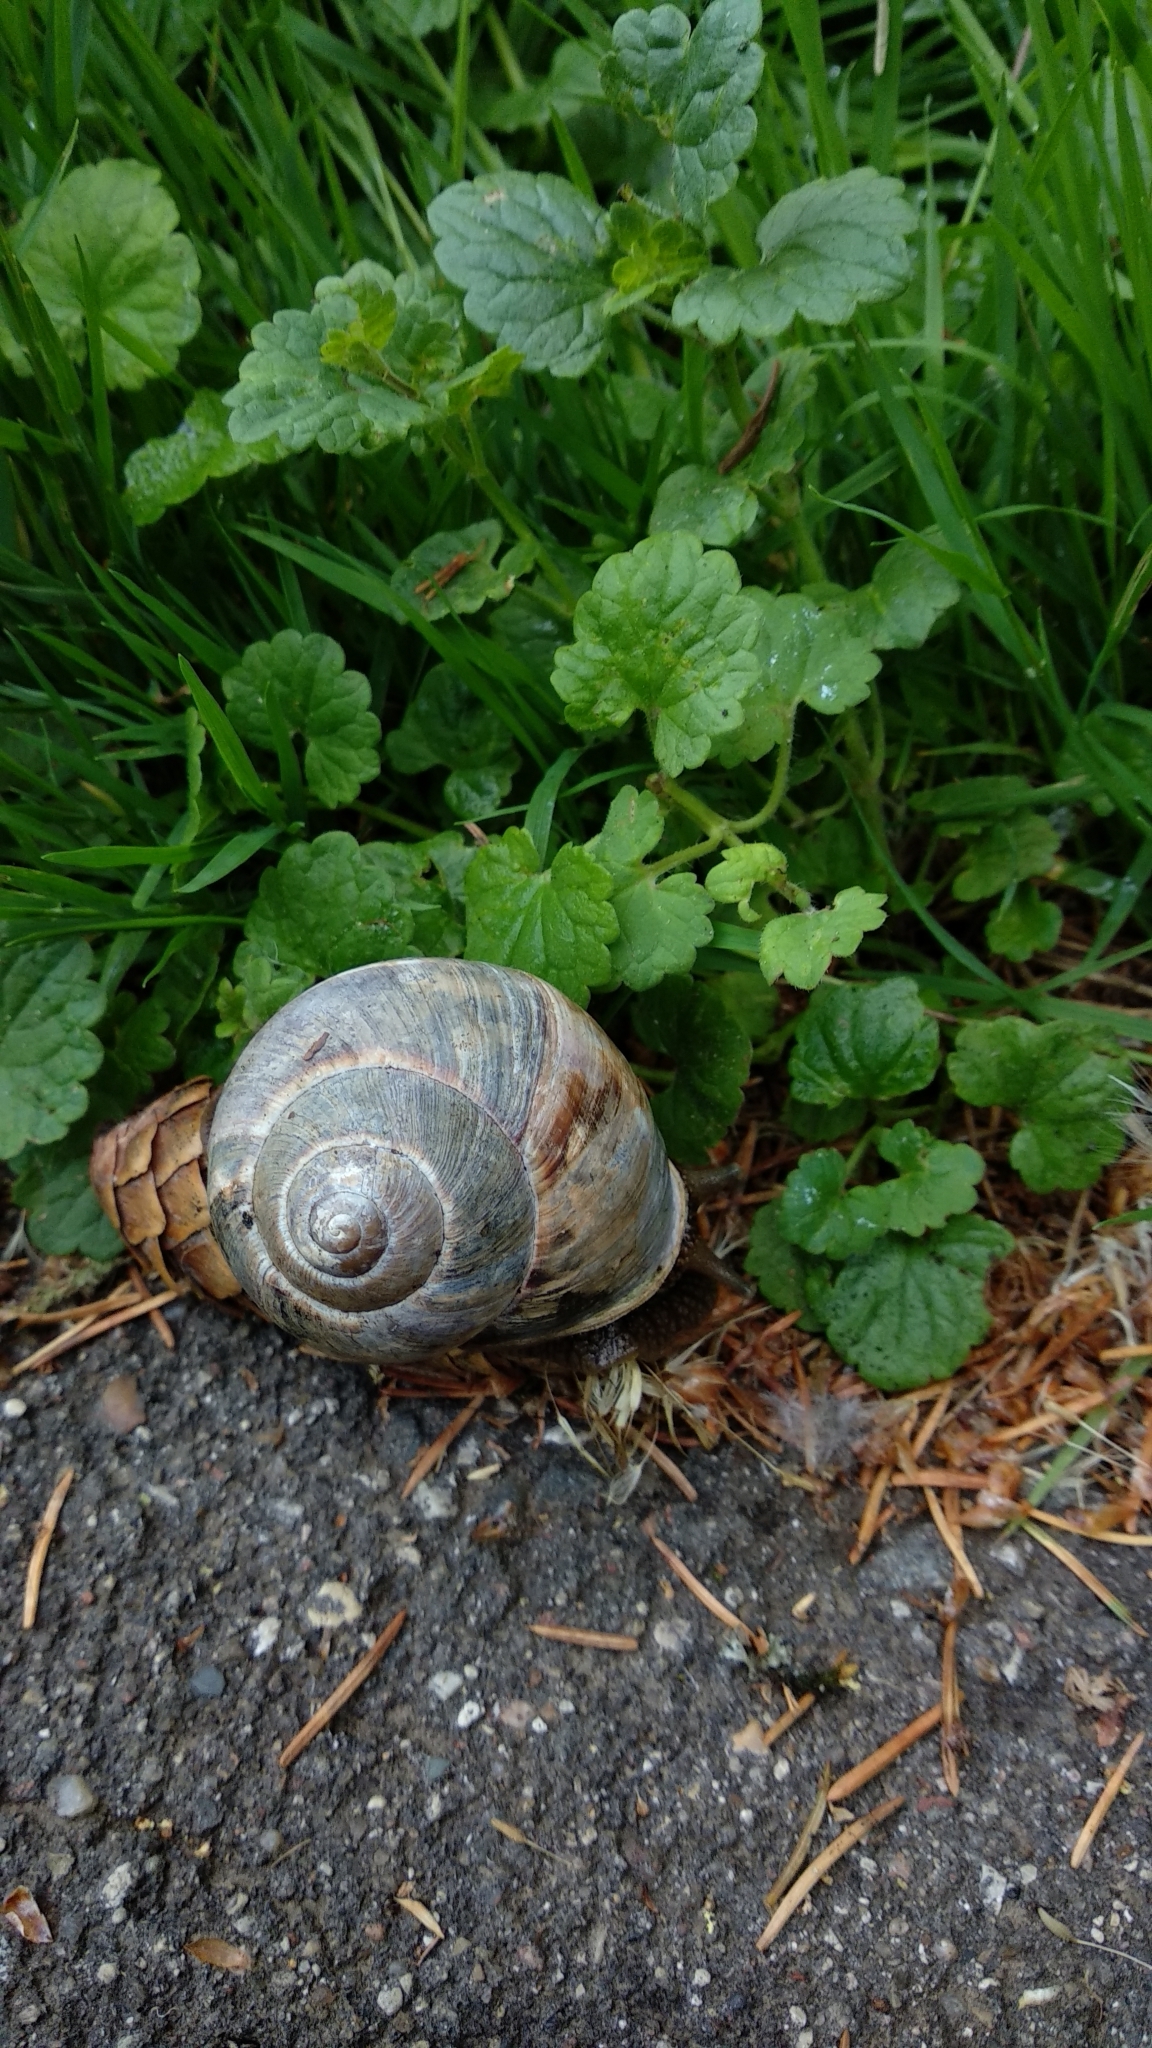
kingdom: Animalia
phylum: Mollusca
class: Gastropoda
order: Stylommatophora
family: Helicidae
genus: Helix
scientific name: Helix lucorum
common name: Turkish snail
